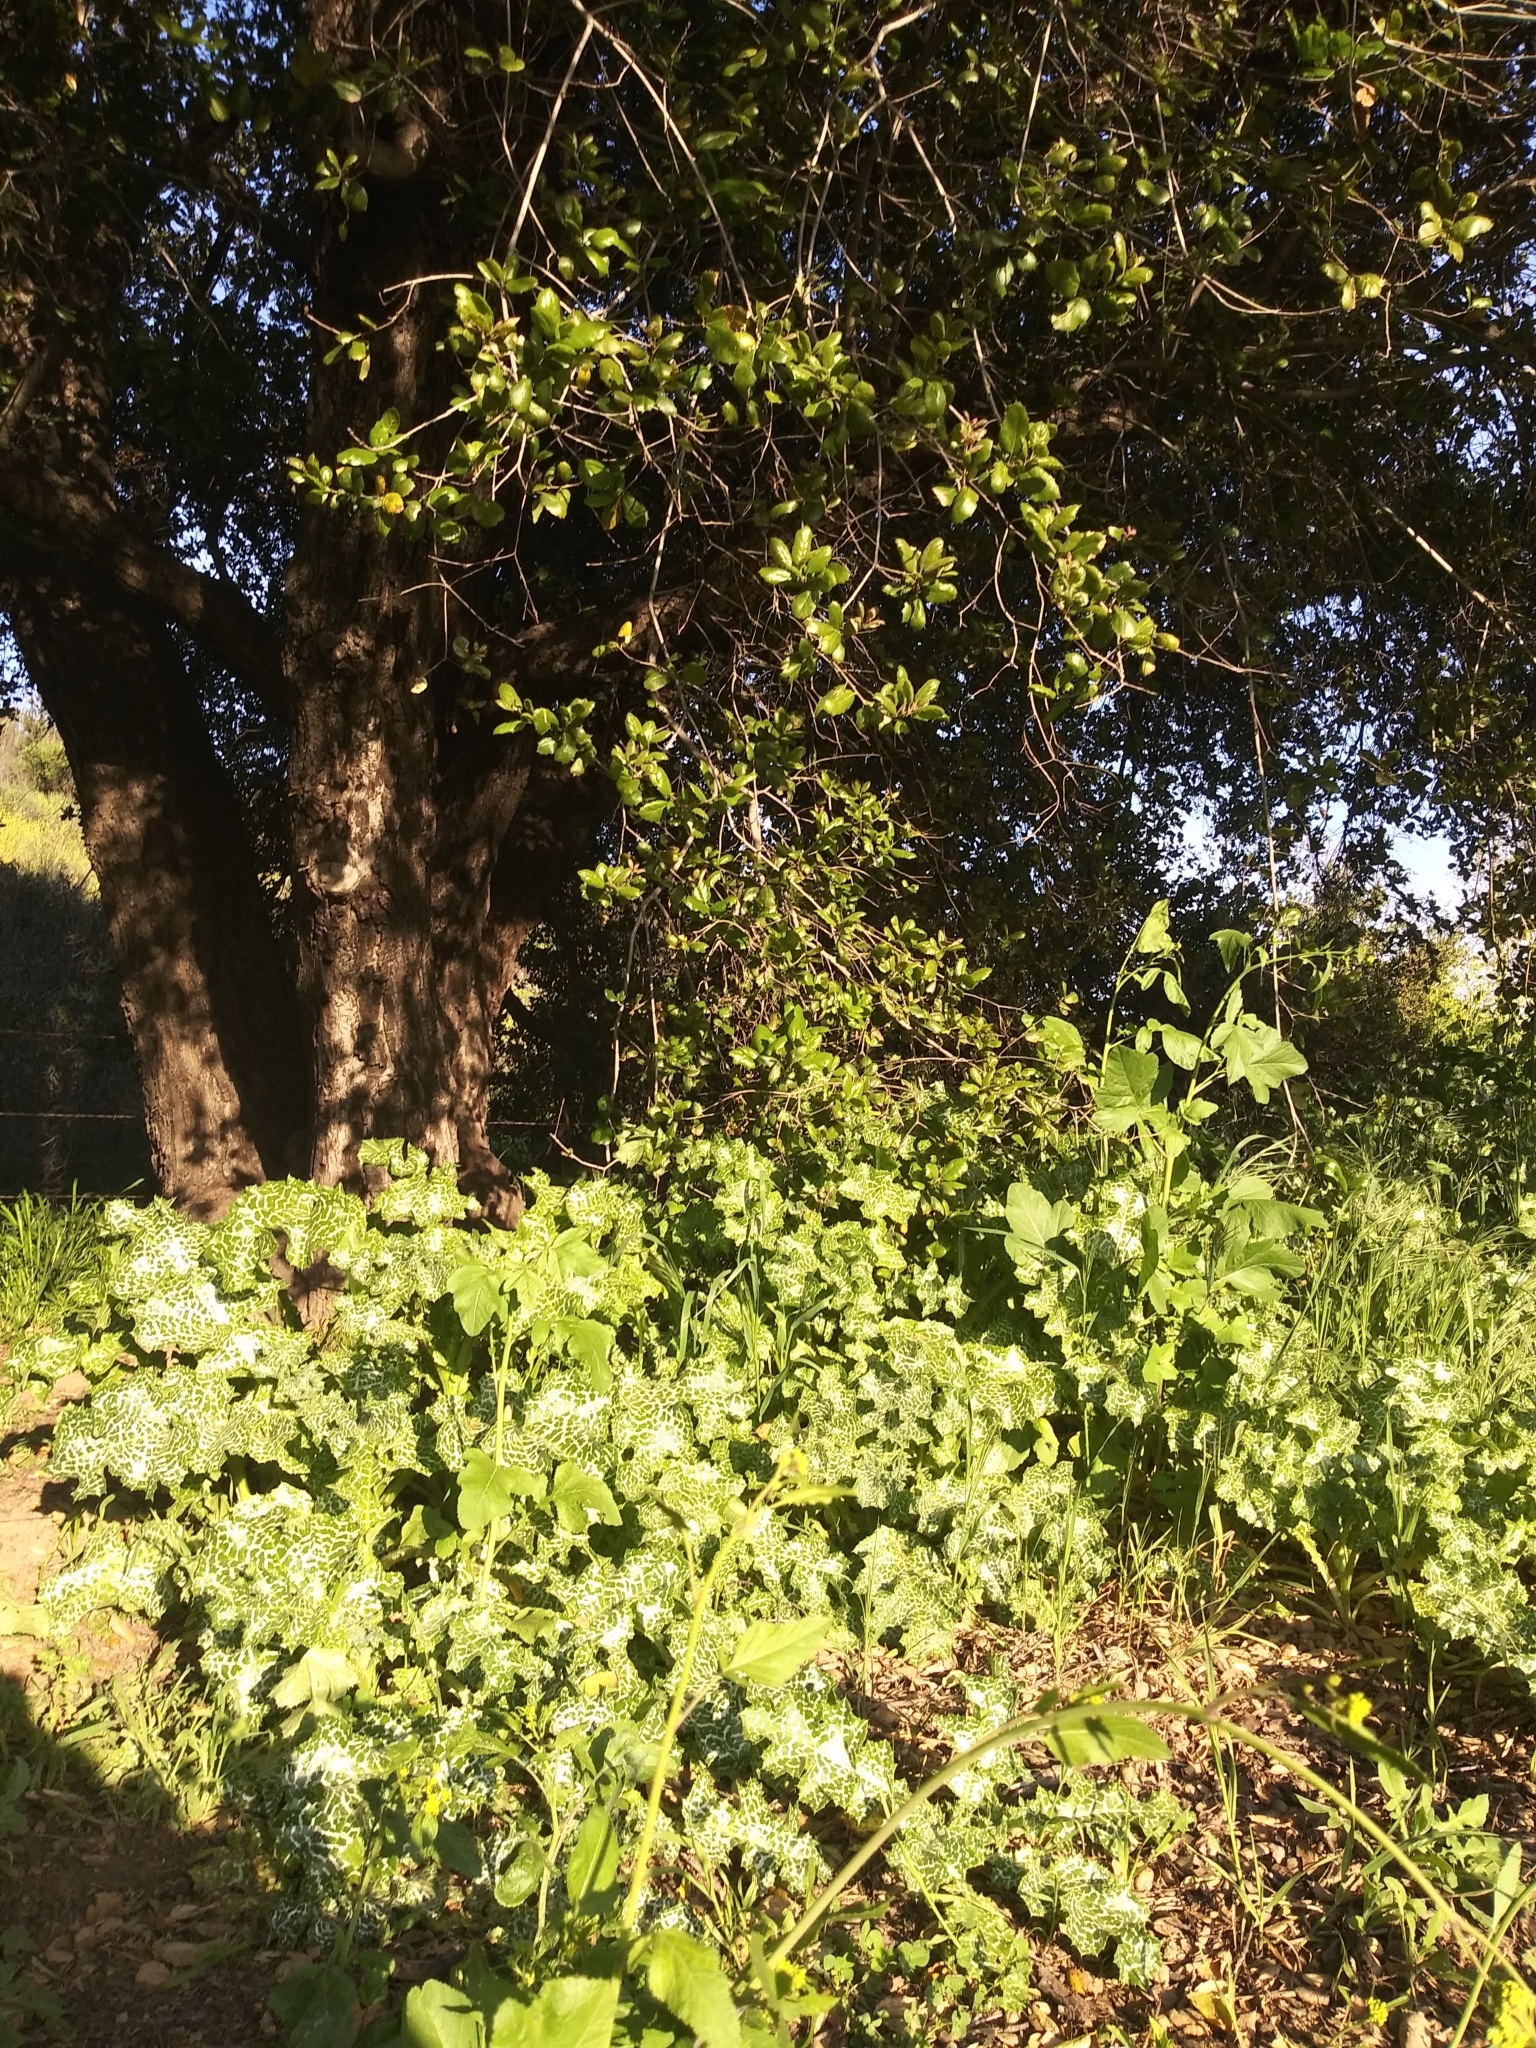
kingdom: Plantae
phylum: Tracheophyta
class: Magnoliopsida
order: Asterales
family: Asteraceae
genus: Silybum
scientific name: Silybum marianum
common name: Milk thistle
